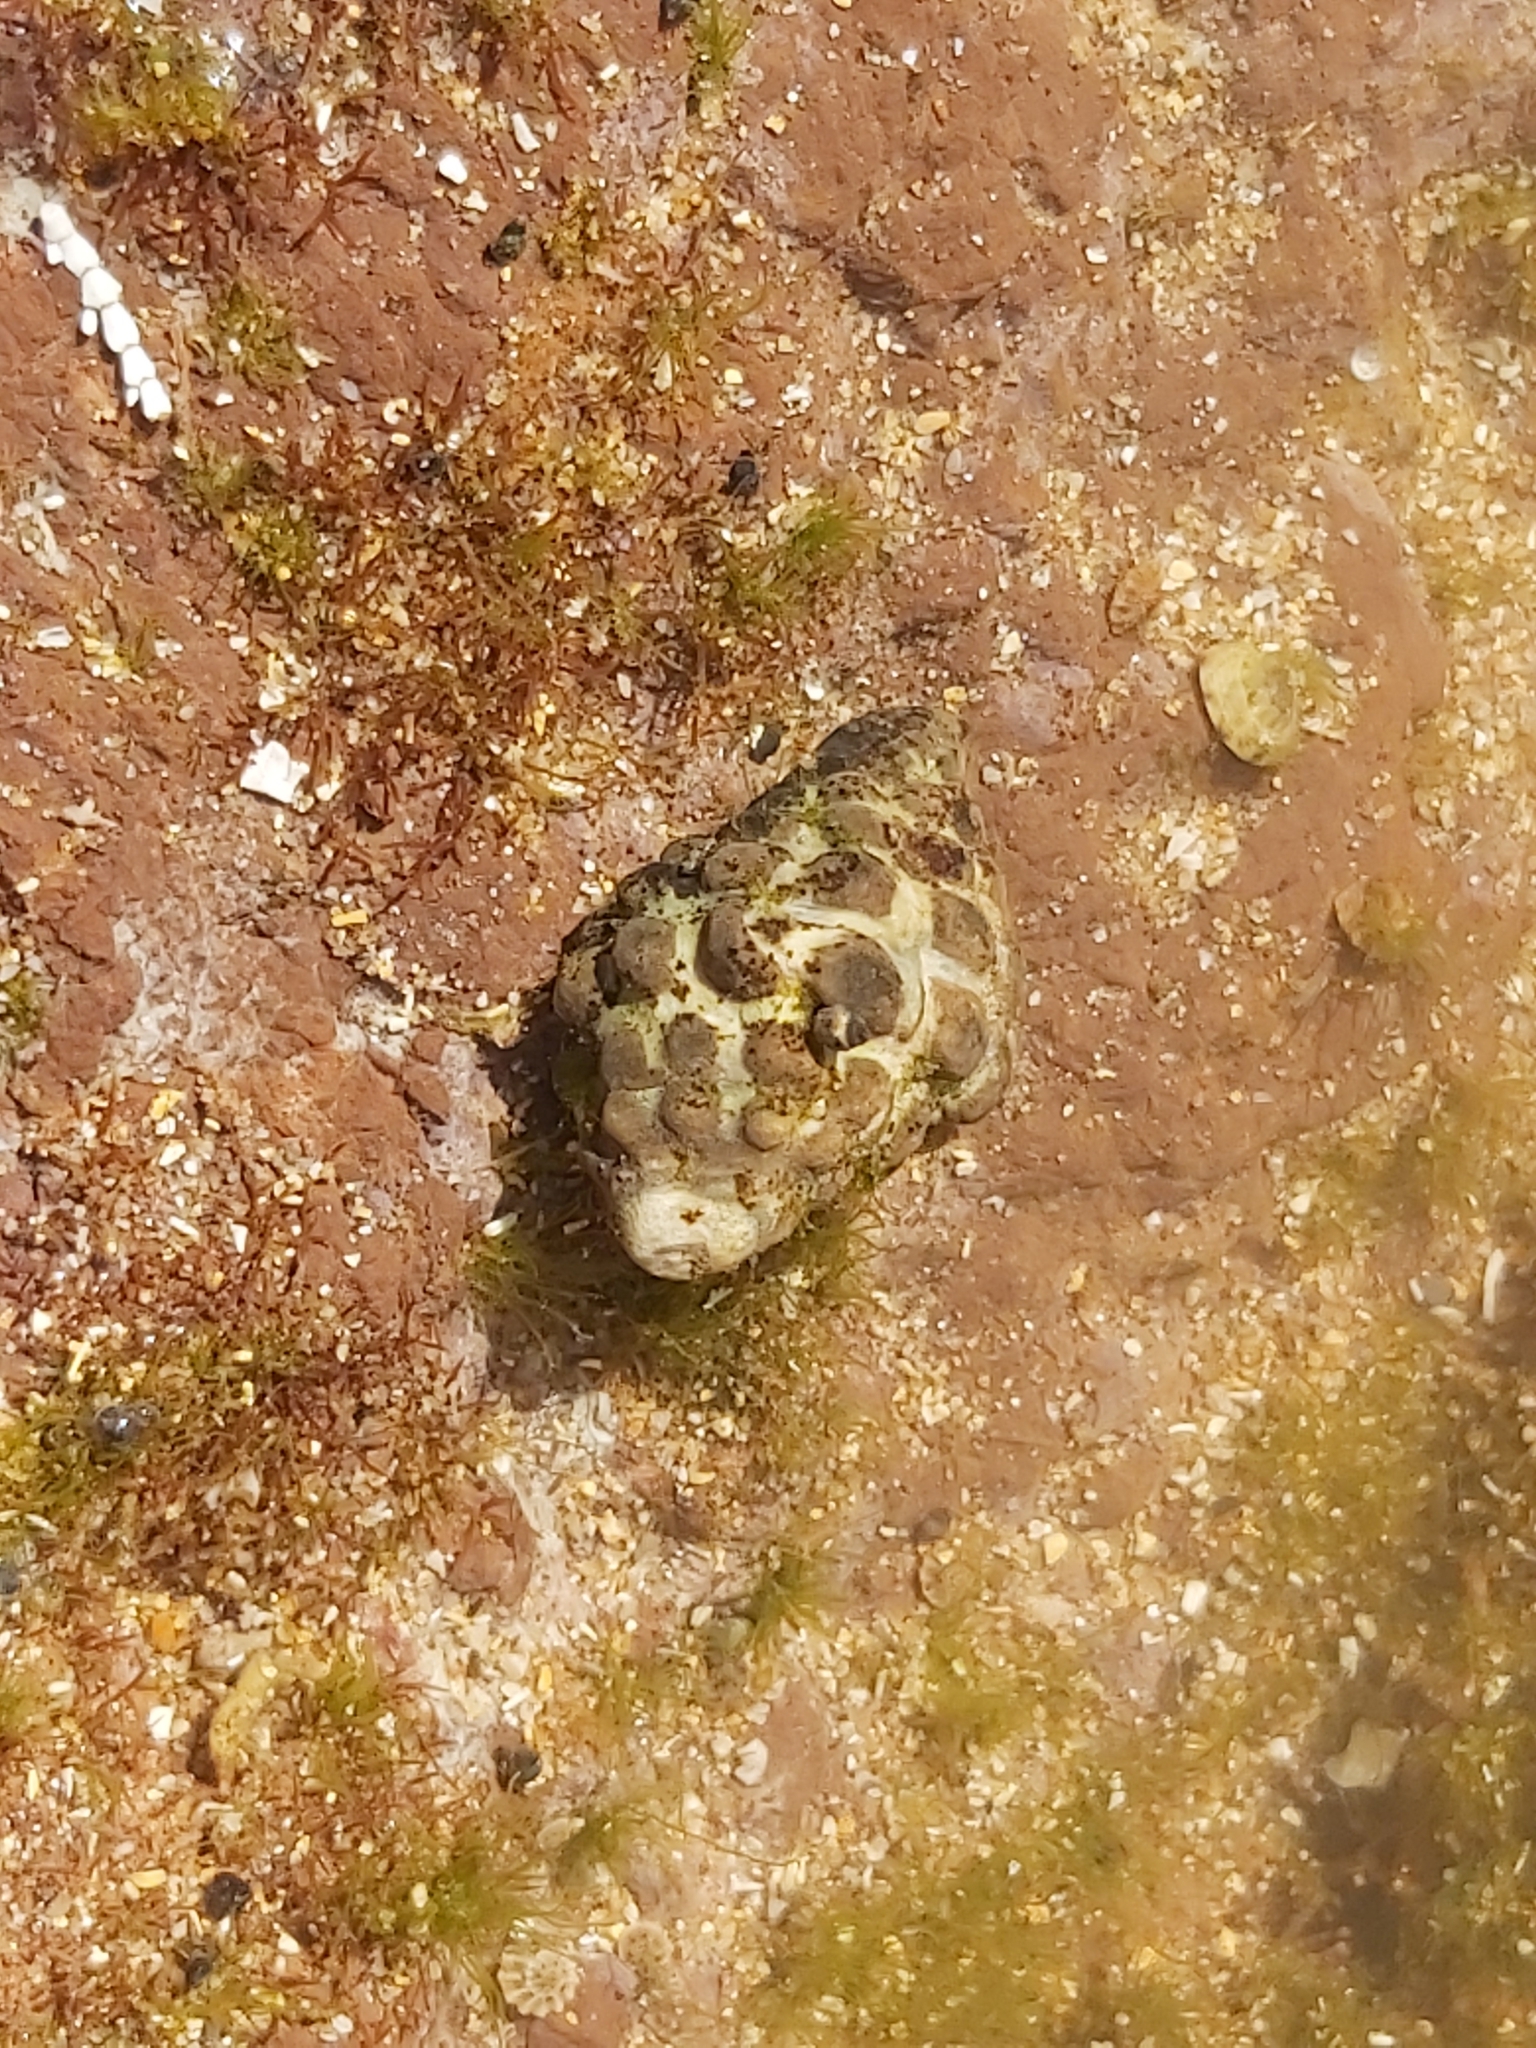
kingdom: Animalia
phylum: Mollusca
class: Gastropoda
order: Neogastropoda
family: Muricidae
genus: Tenguella
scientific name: Tenguella marginalba
